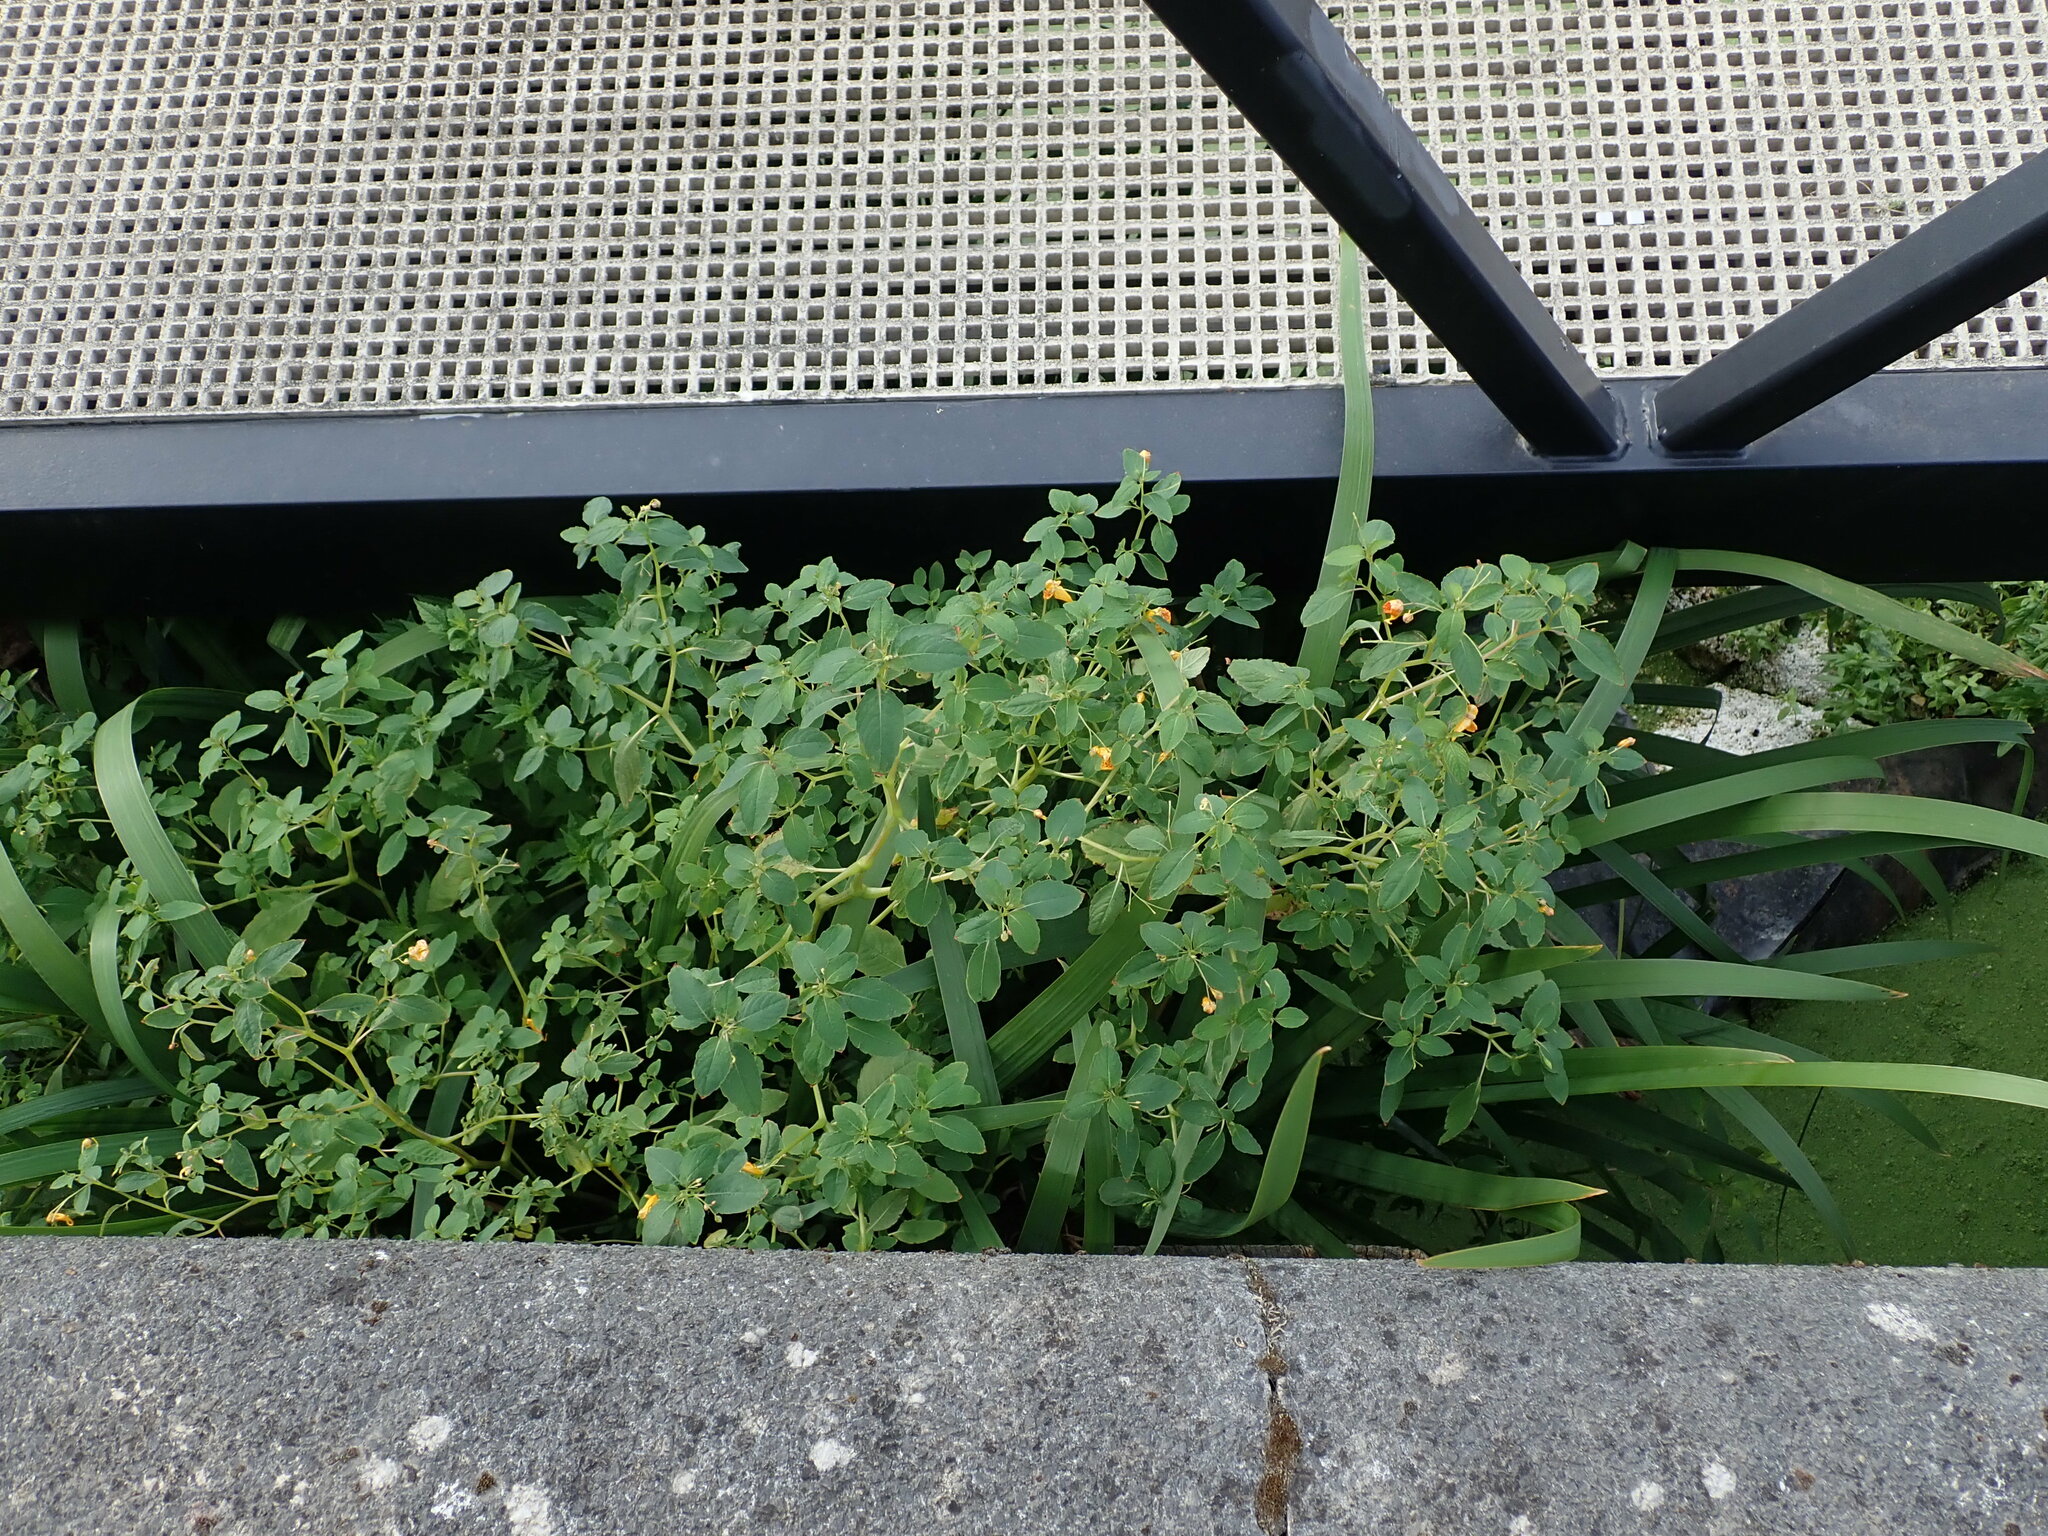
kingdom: Plantae
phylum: Tracheophyta
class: Magnoliopsida
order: Ericales
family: Balsaminaceae
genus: Impatiens
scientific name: Impatiens capensis
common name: Orange balsam
